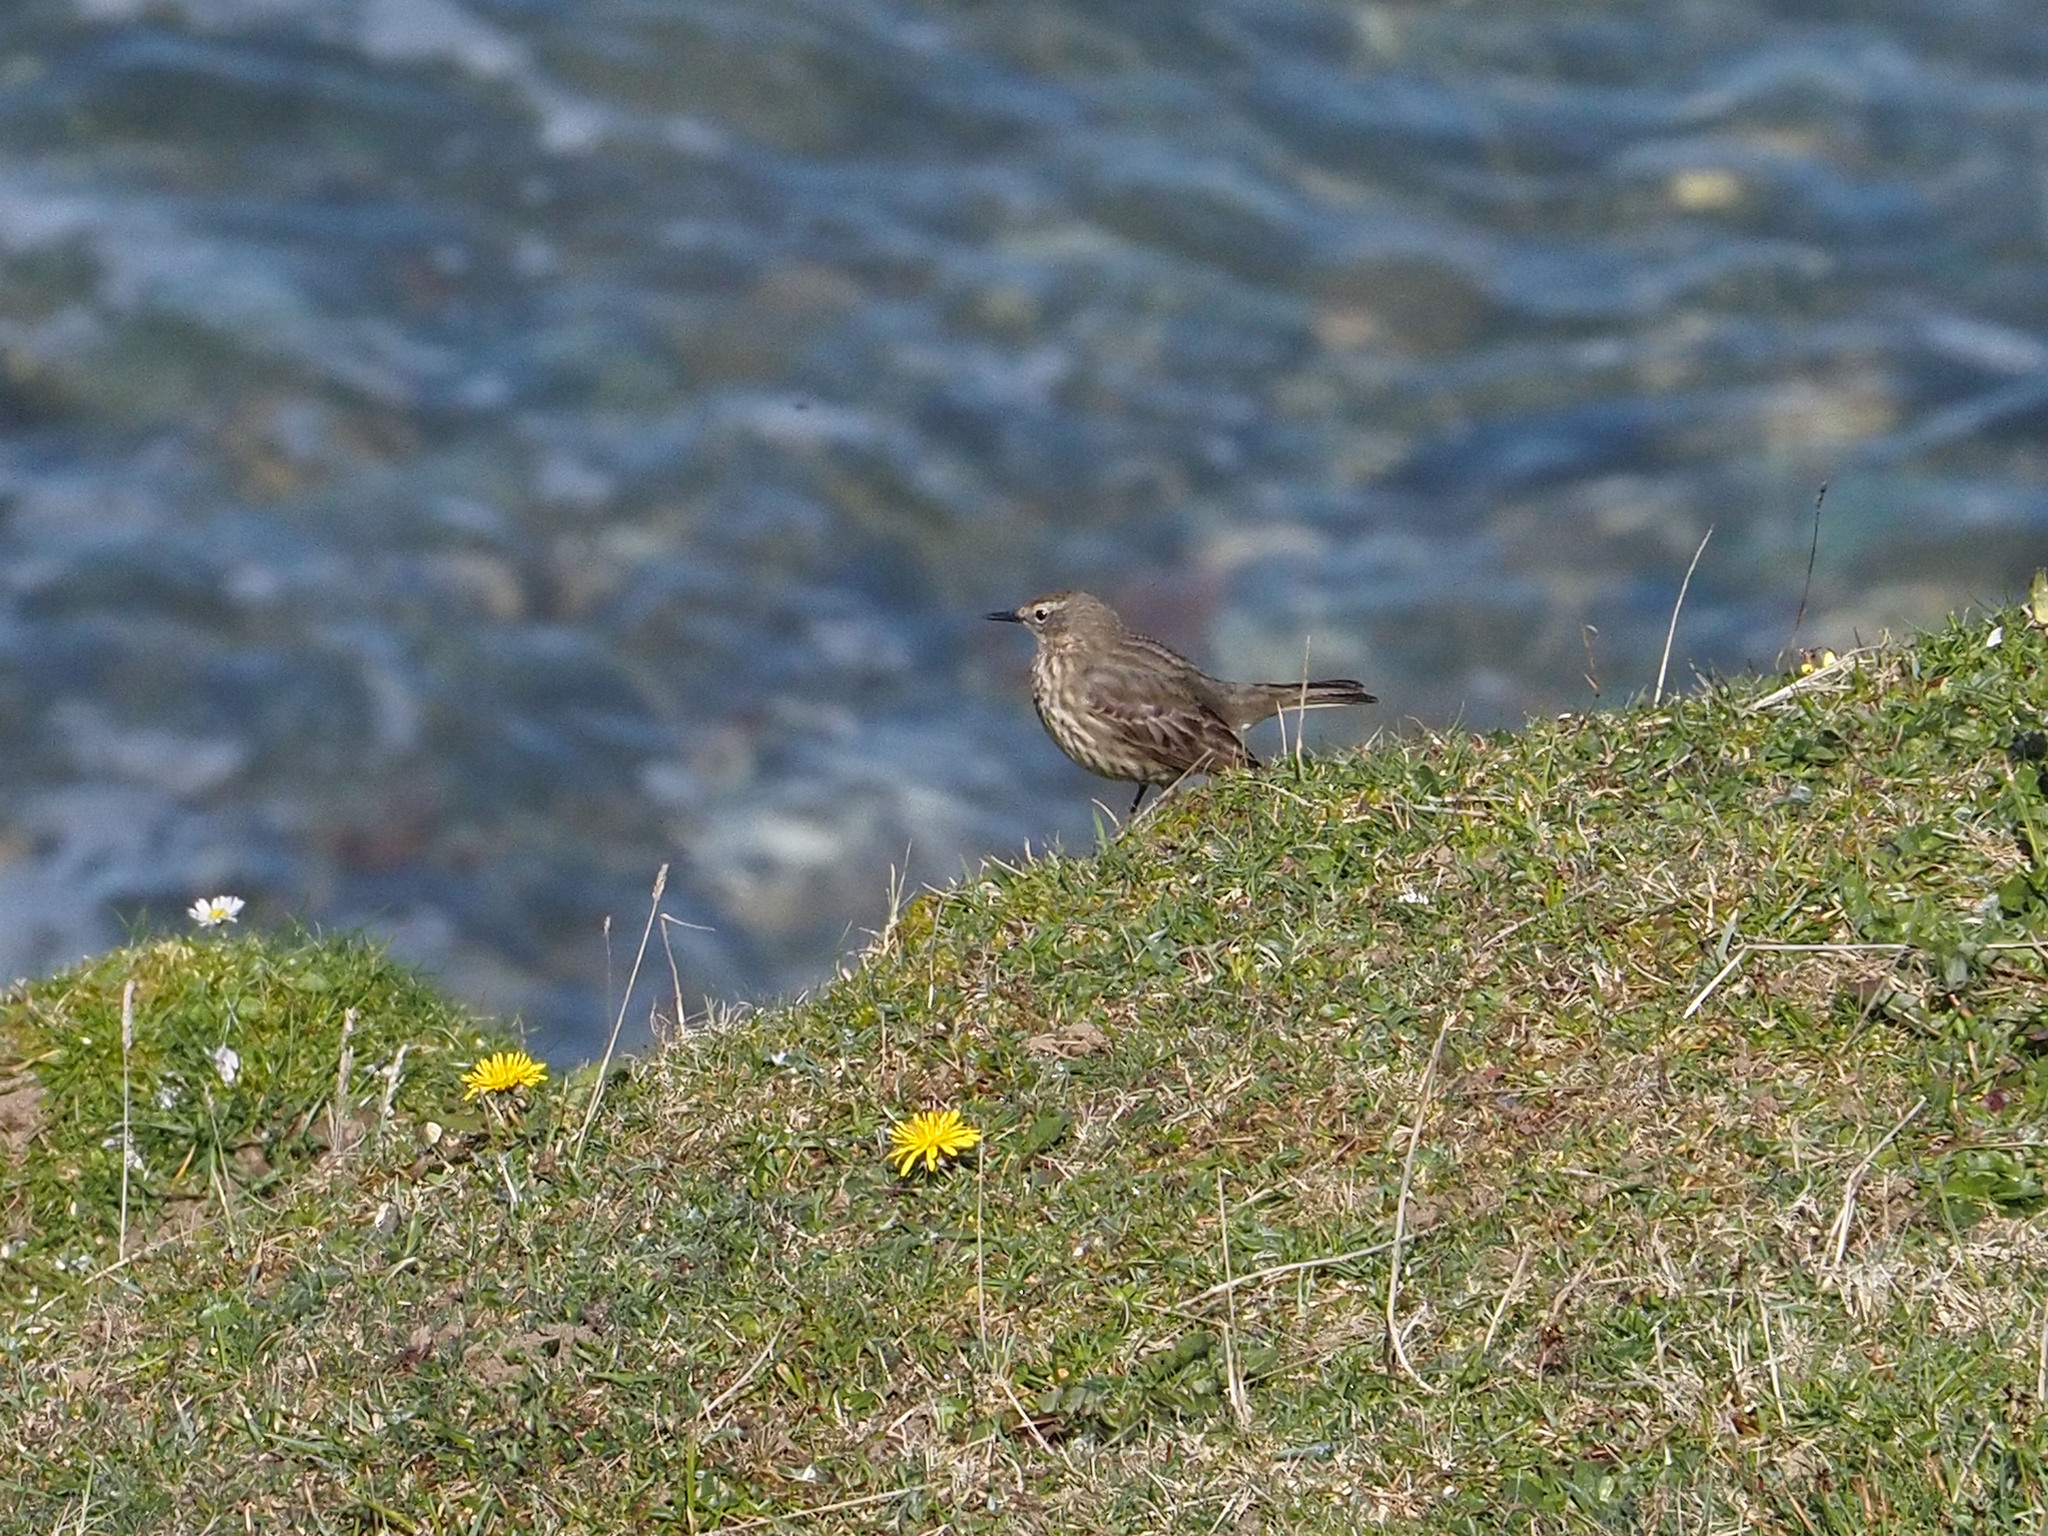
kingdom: Animalia
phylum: Chordata
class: Aves
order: Passeriformes
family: Motacillidae
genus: Anthus
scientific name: Anthus petrosus
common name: Eurasian rock pipit
